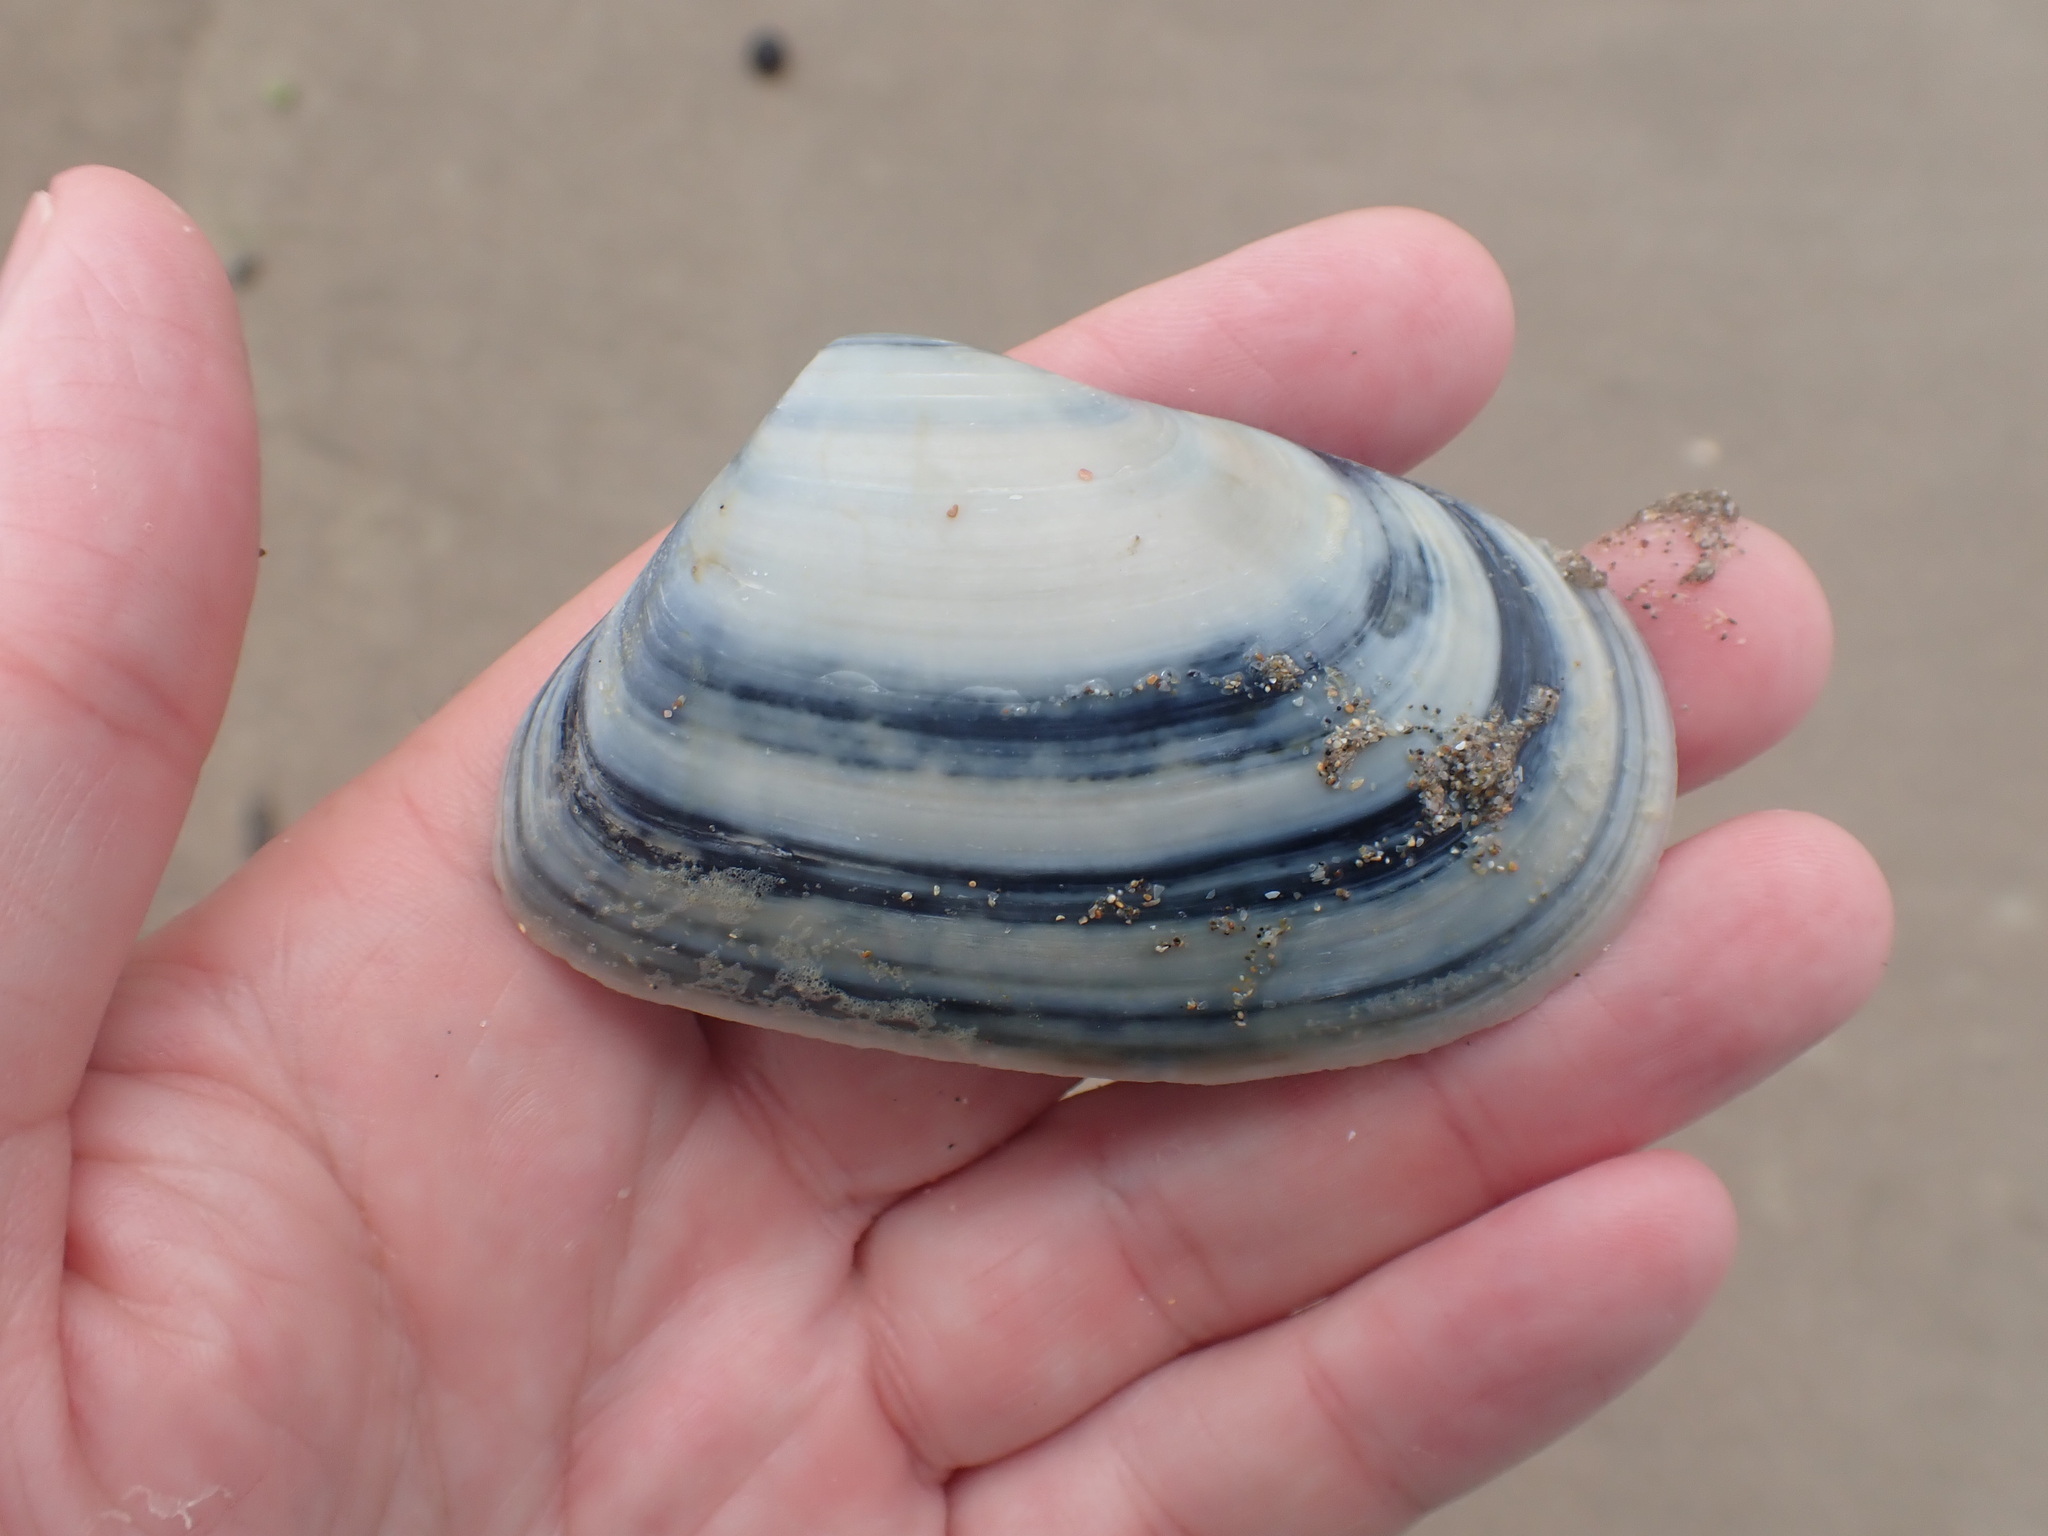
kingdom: Animalia
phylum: Mollusca
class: Bivalvia
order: Venerida
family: Mesodesmatidae
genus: Paphies
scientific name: Paphies subtriangulata
